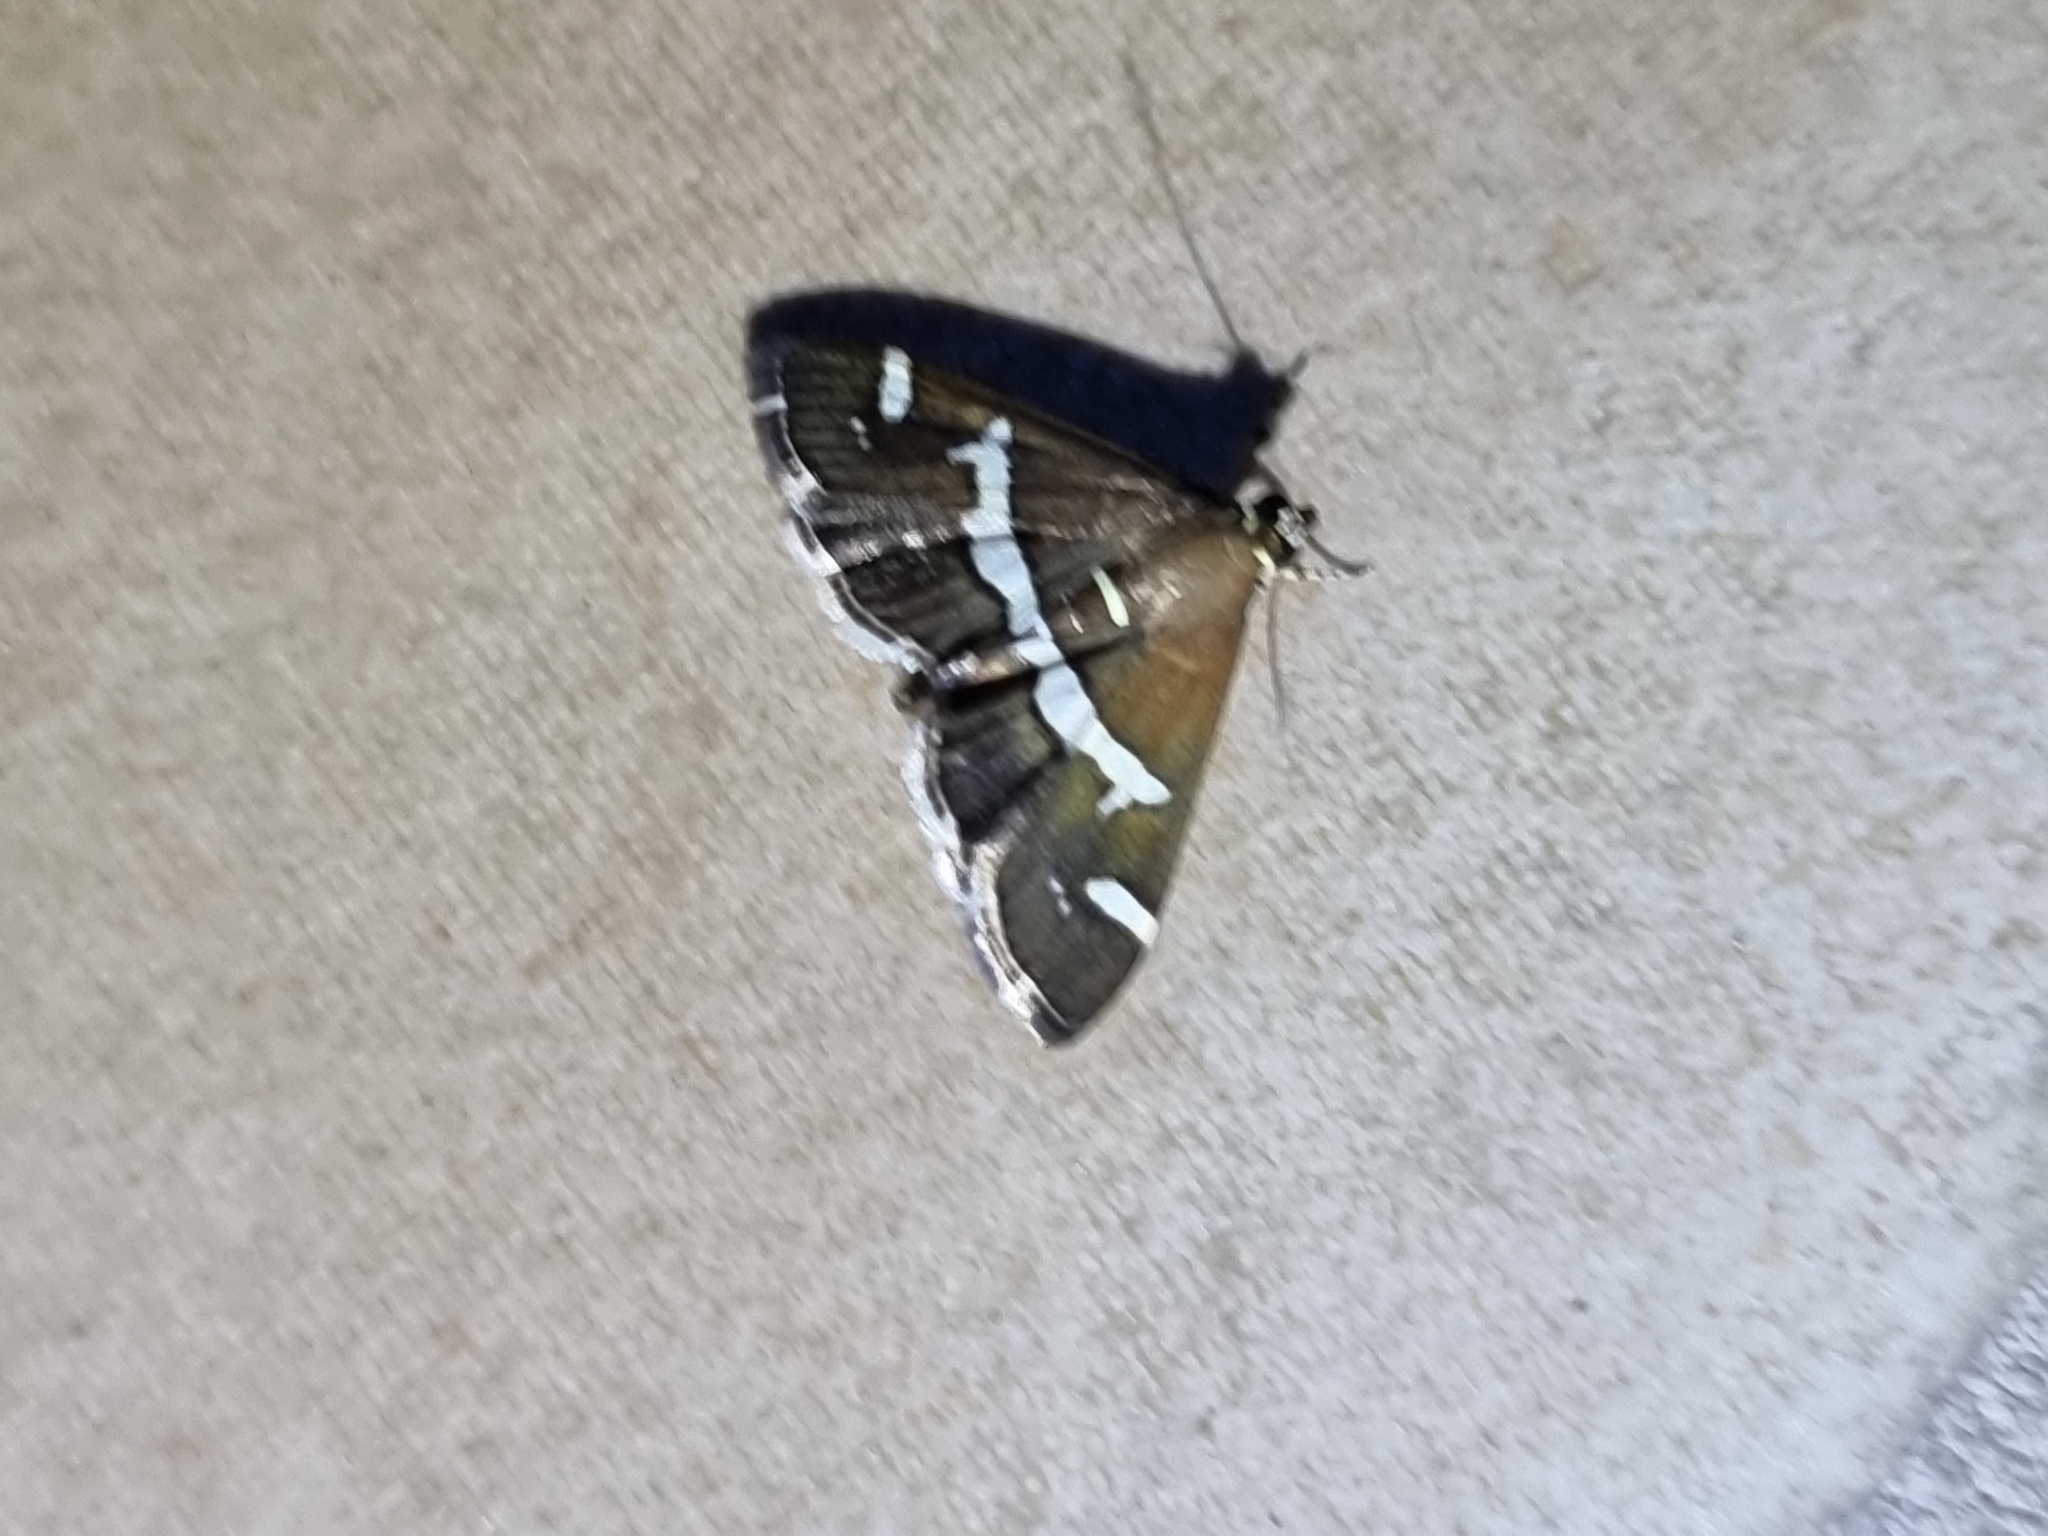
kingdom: Animalia
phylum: Arthropoda
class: Insecta
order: Lepidoptera
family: Crambidae
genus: Spoladea
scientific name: Spoladea recurvalis
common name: Beet webworm moth
